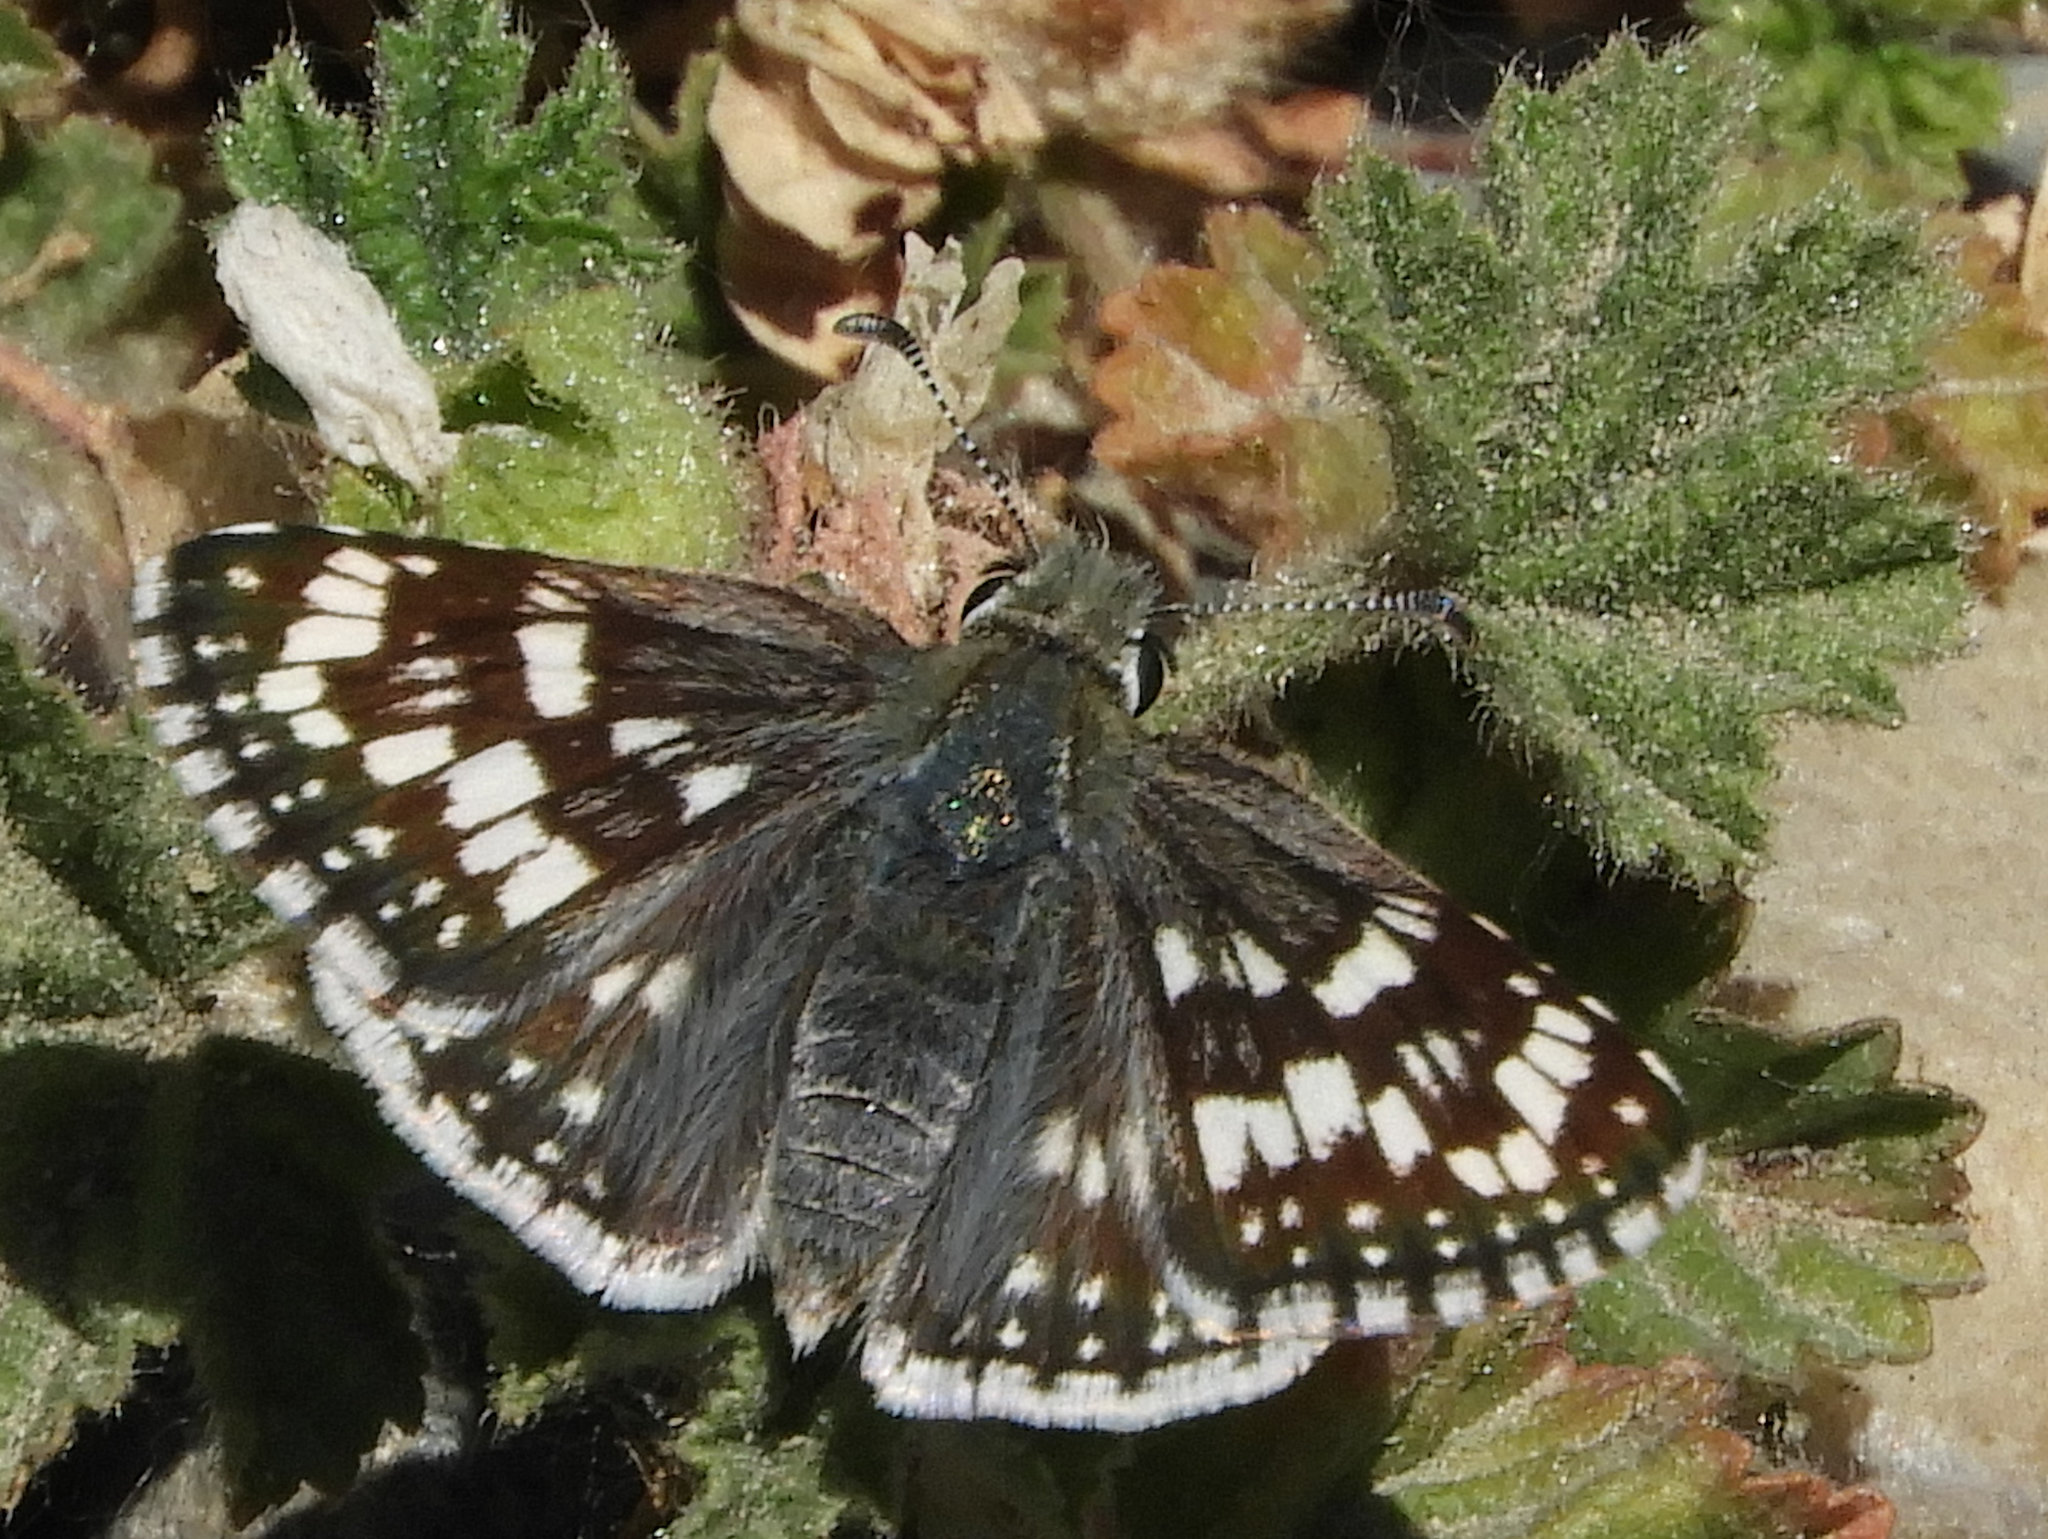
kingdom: Animalia
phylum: Arthropoda
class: Insecta
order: Lepidoptera
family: Hesperiidae
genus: Burnsius
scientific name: Burnsius communis
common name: Common checkered-skipper
